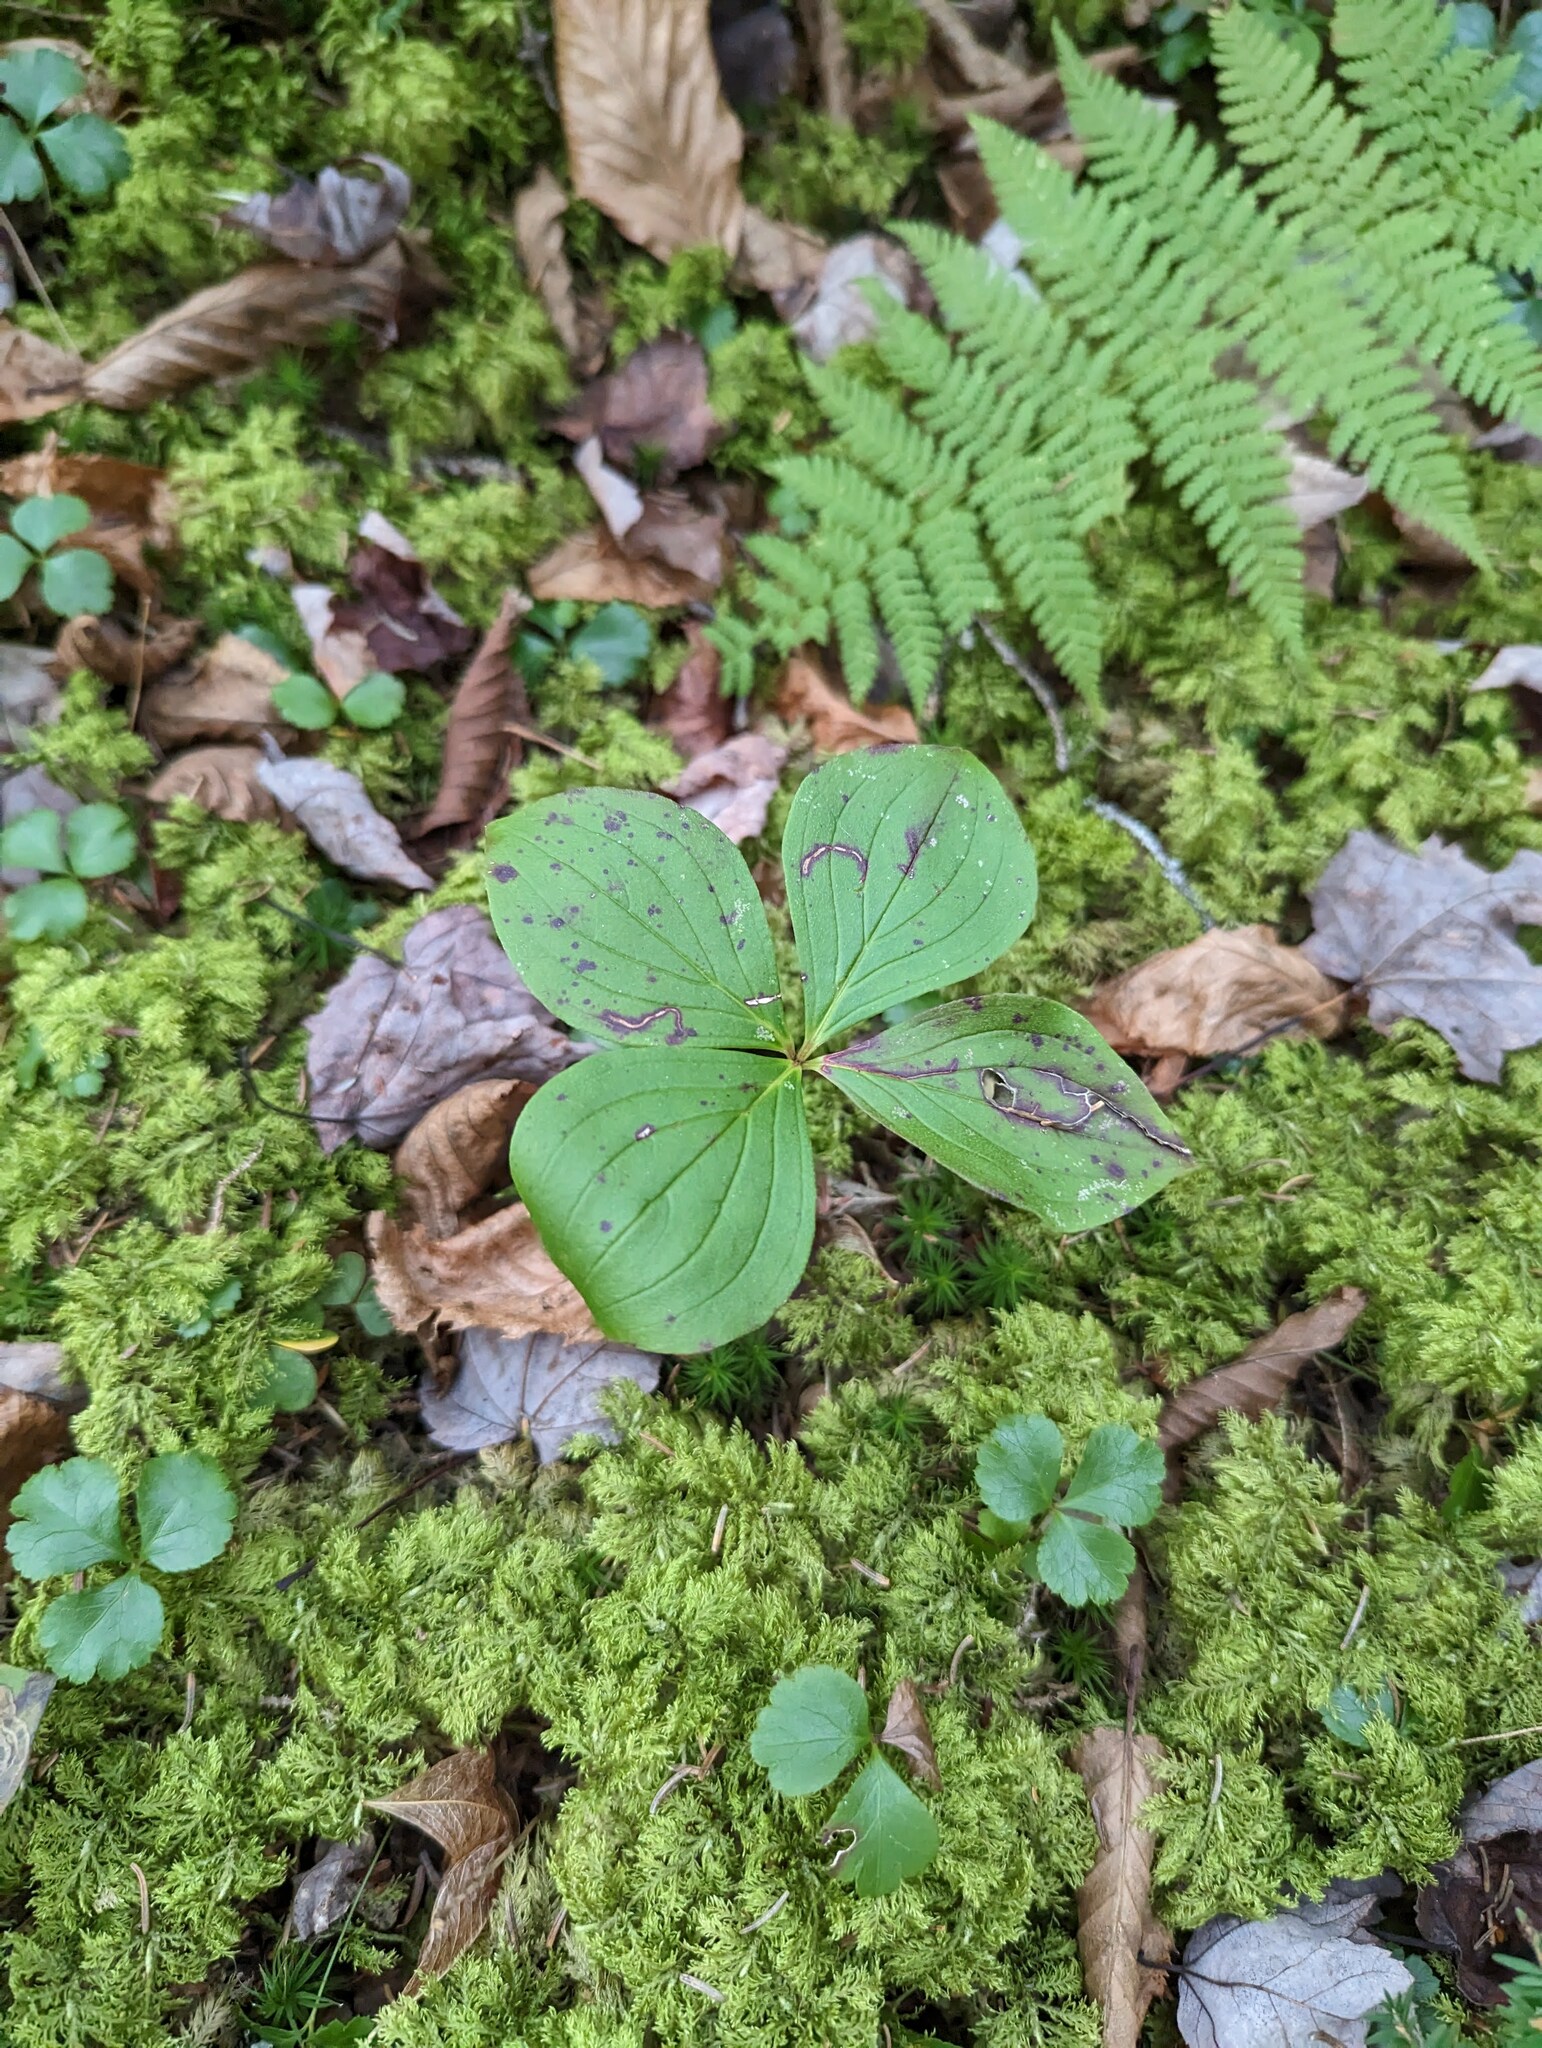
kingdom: Plantae
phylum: Tracheophyta
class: Magnoliopsida
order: Cornales
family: Cornaceae
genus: Cornus
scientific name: Cornus canadensis
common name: Creeping dogwood
